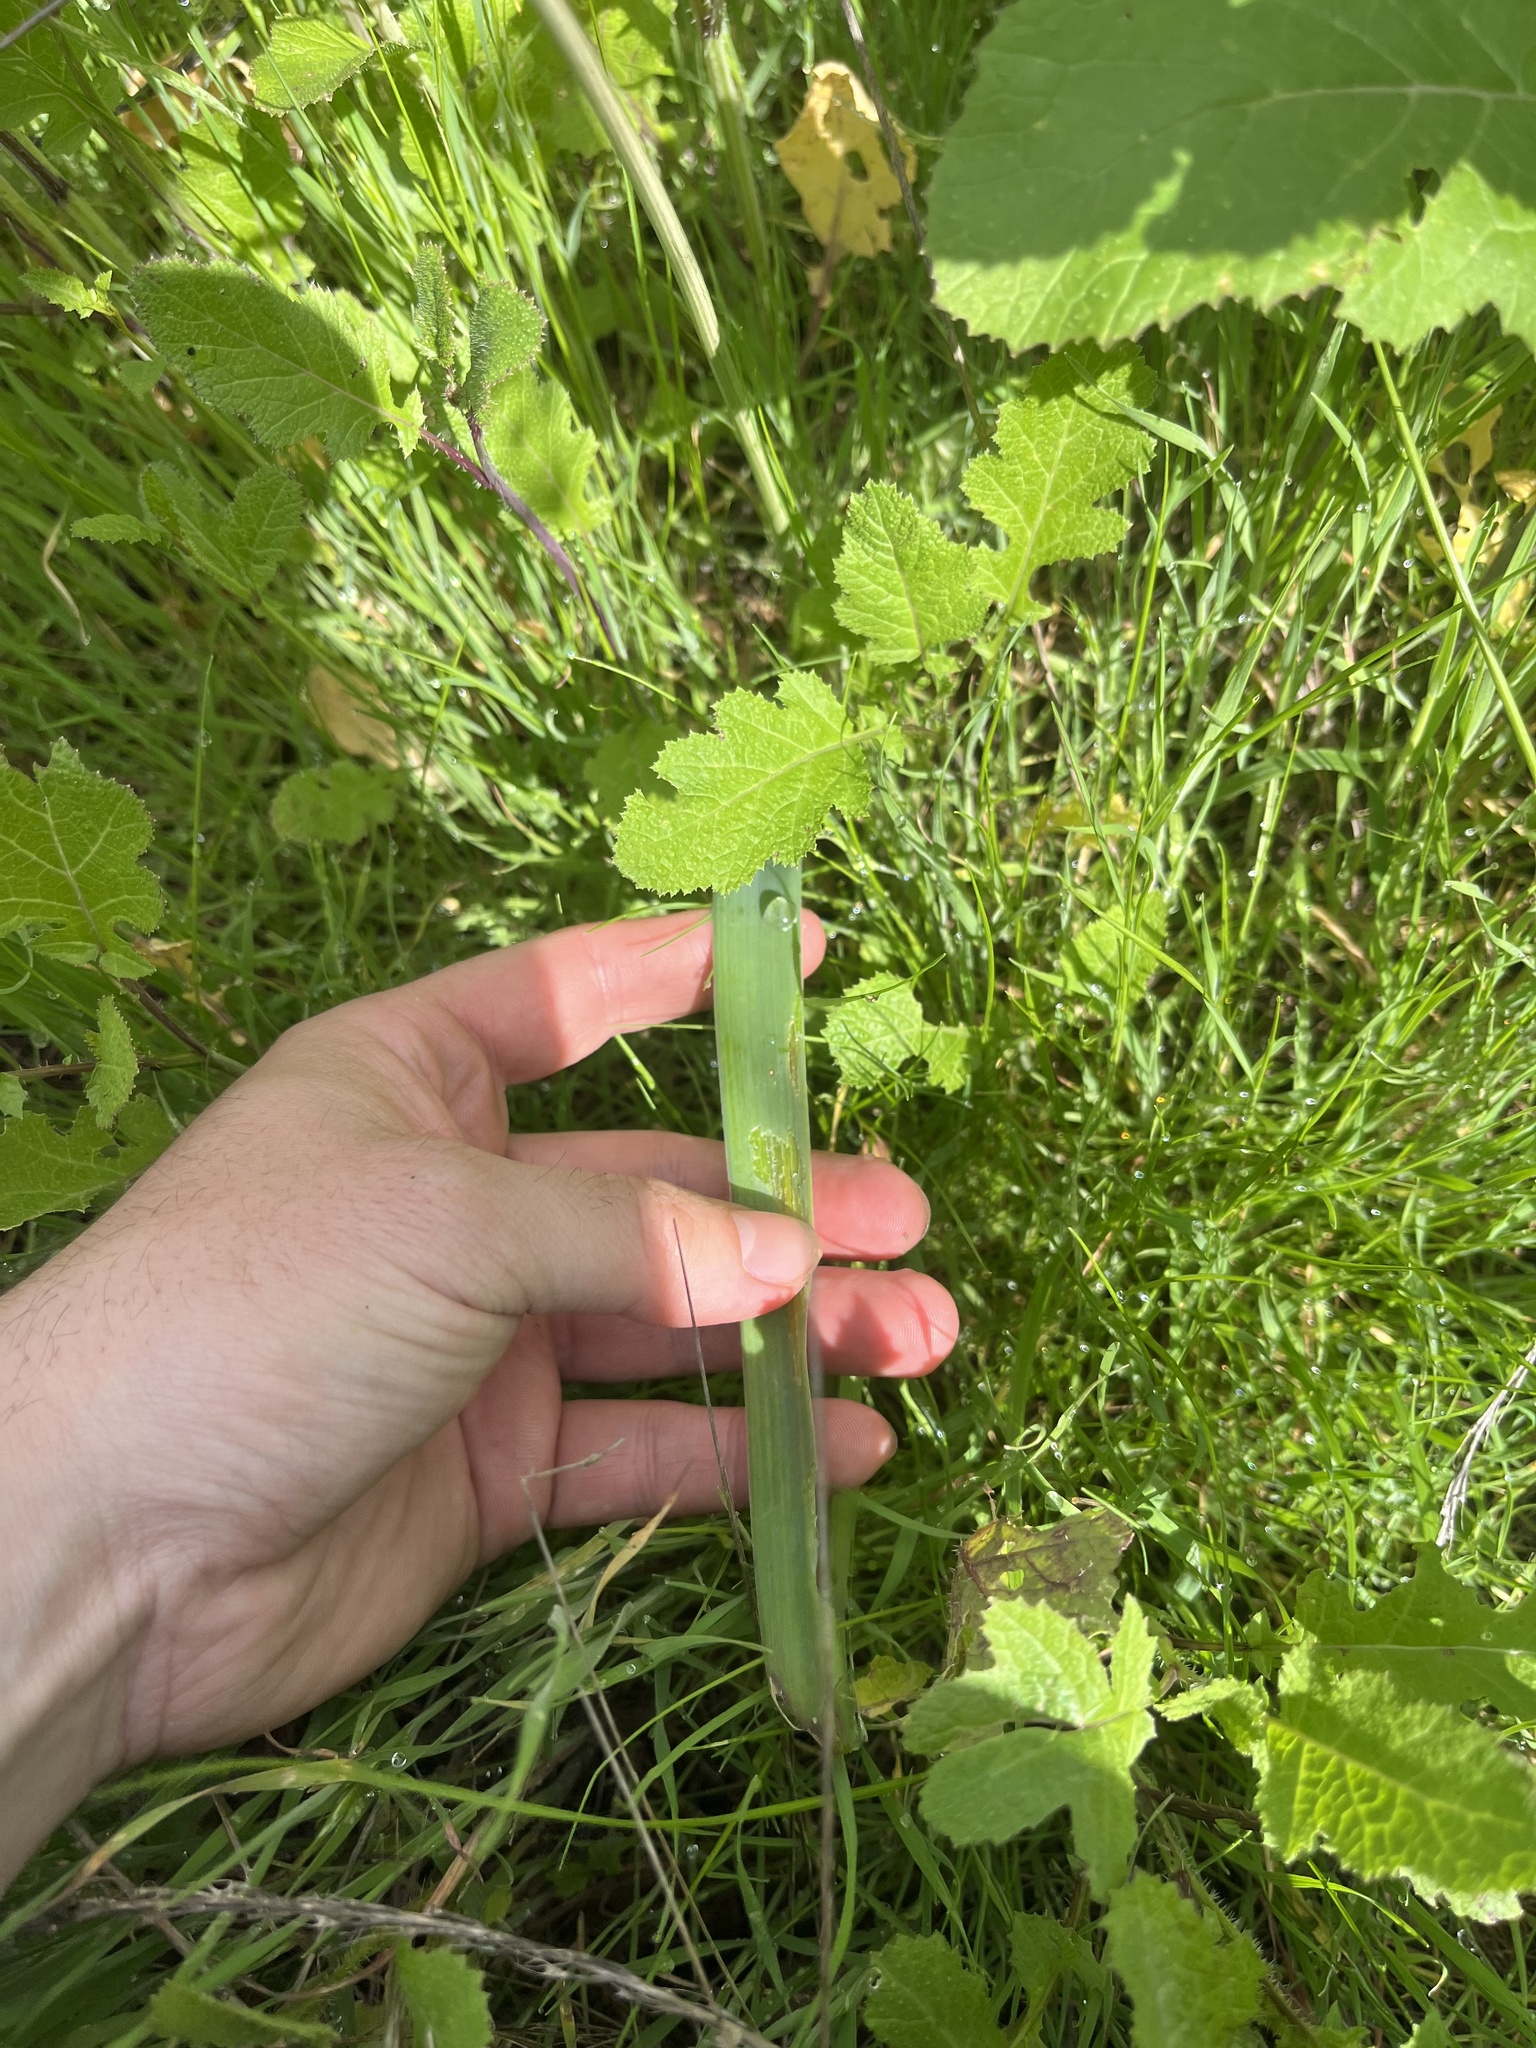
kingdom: Plantae
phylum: Tracheophyta
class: Liliopsida
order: Asparagales
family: Asparagaceae
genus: Dipterostemon
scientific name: Dipterostemon capitatus
